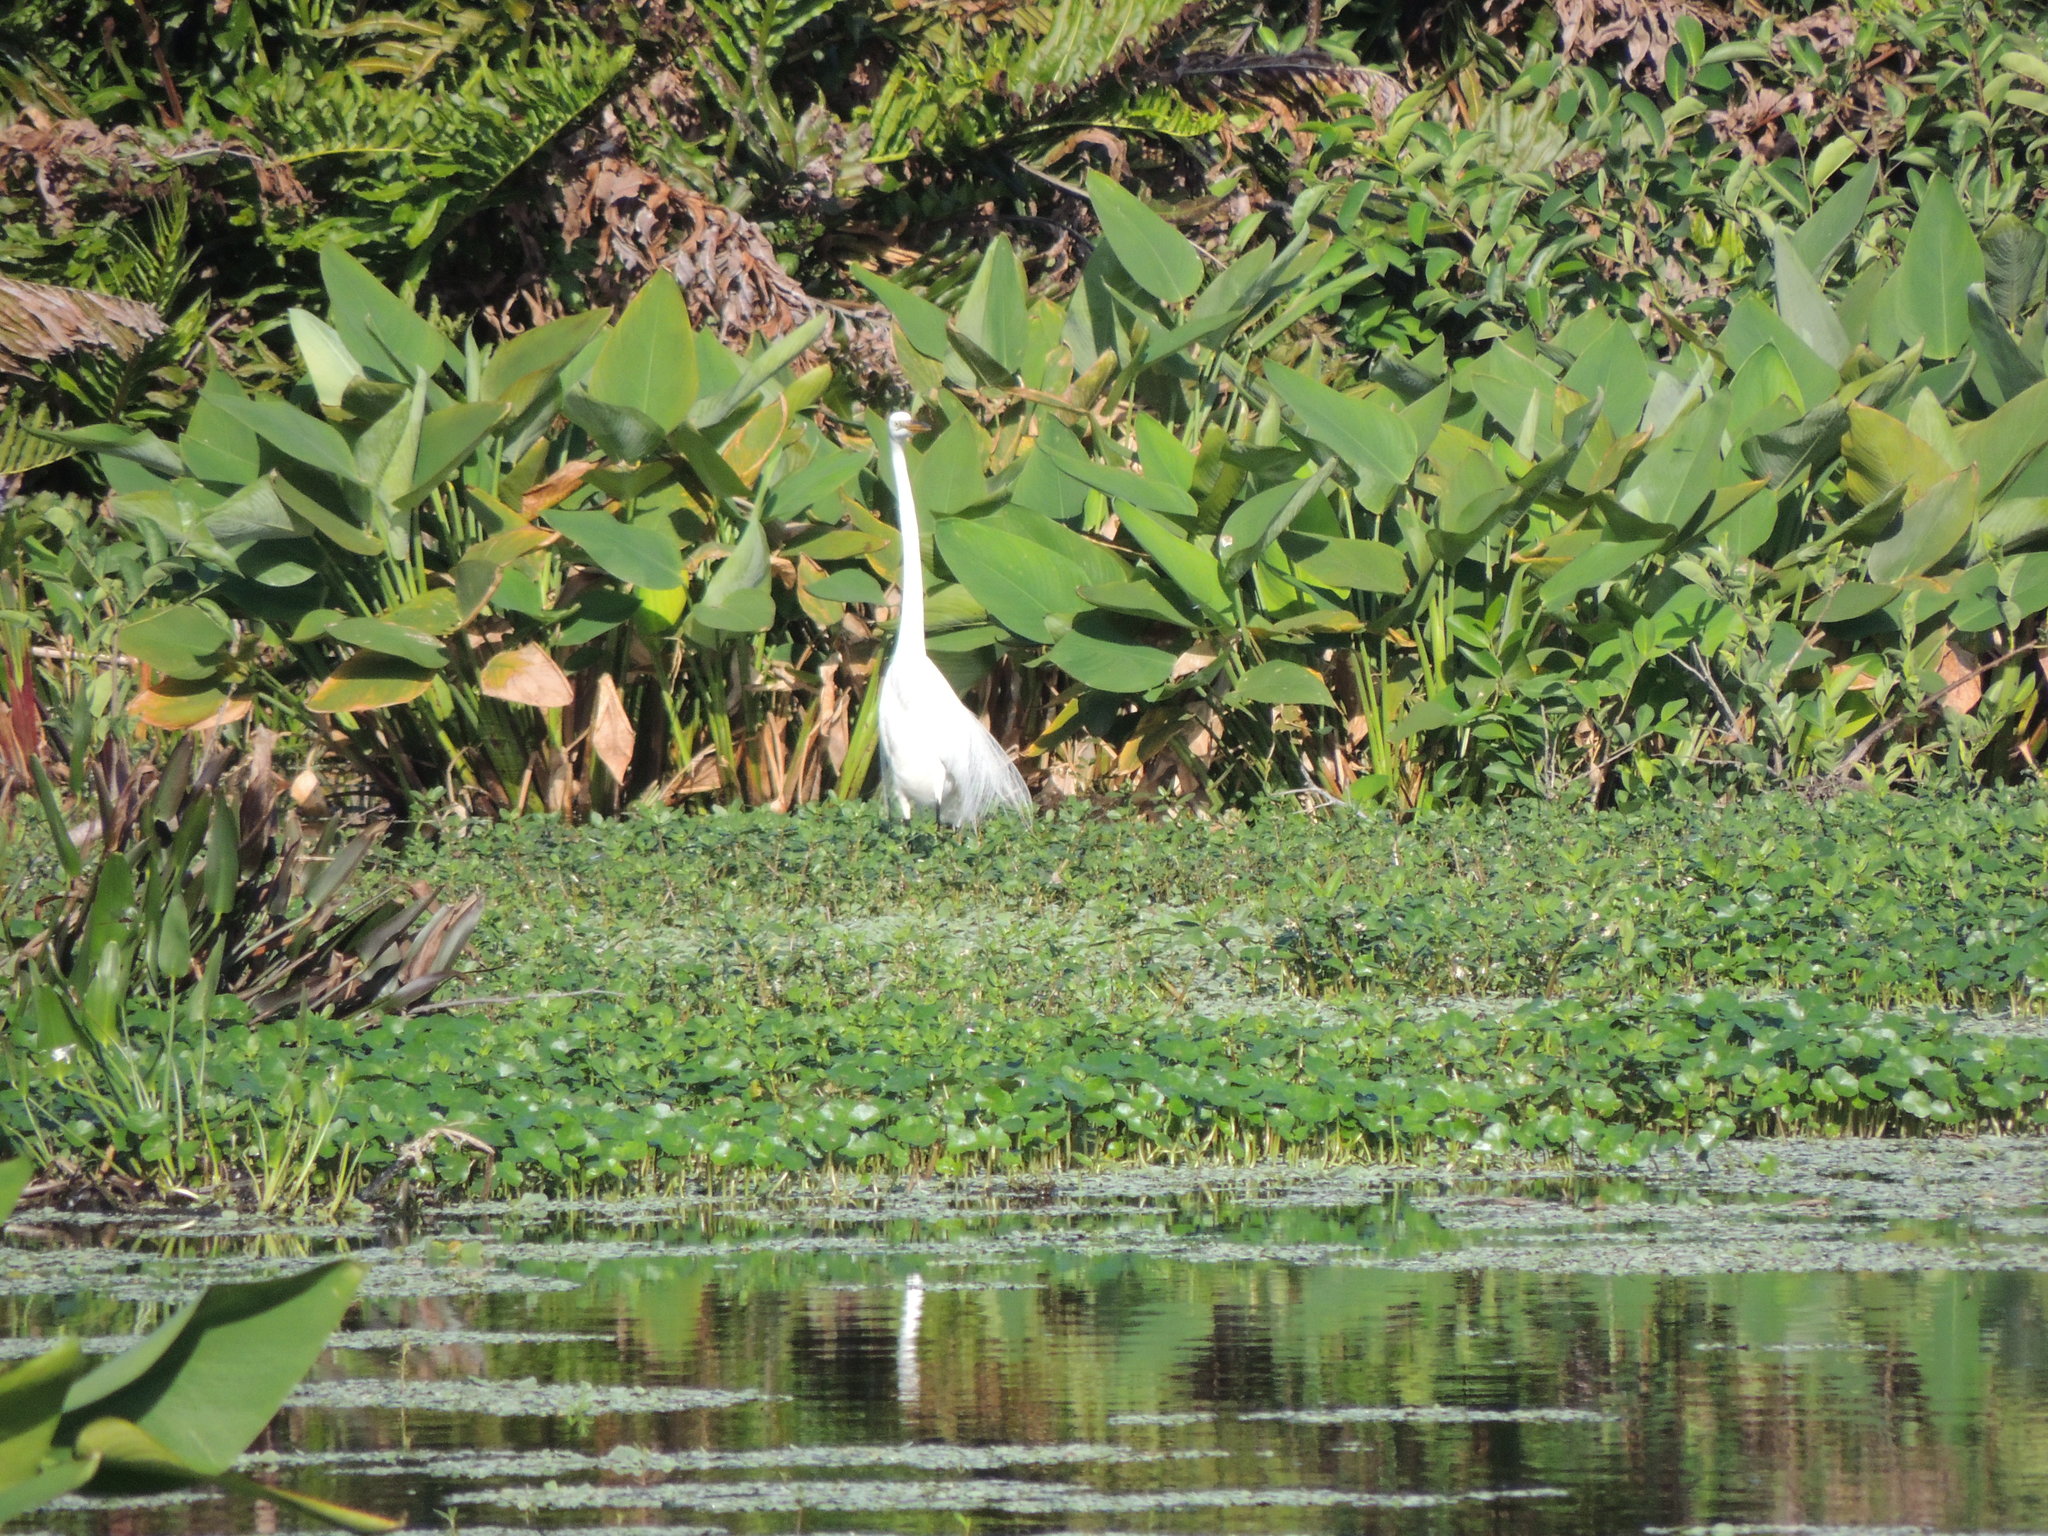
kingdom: Animalia
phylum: Chordata
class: Aves
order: Pelecaniformes
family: Ardeidae
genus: Ardea
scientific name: Ardea alba
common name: Great egret
